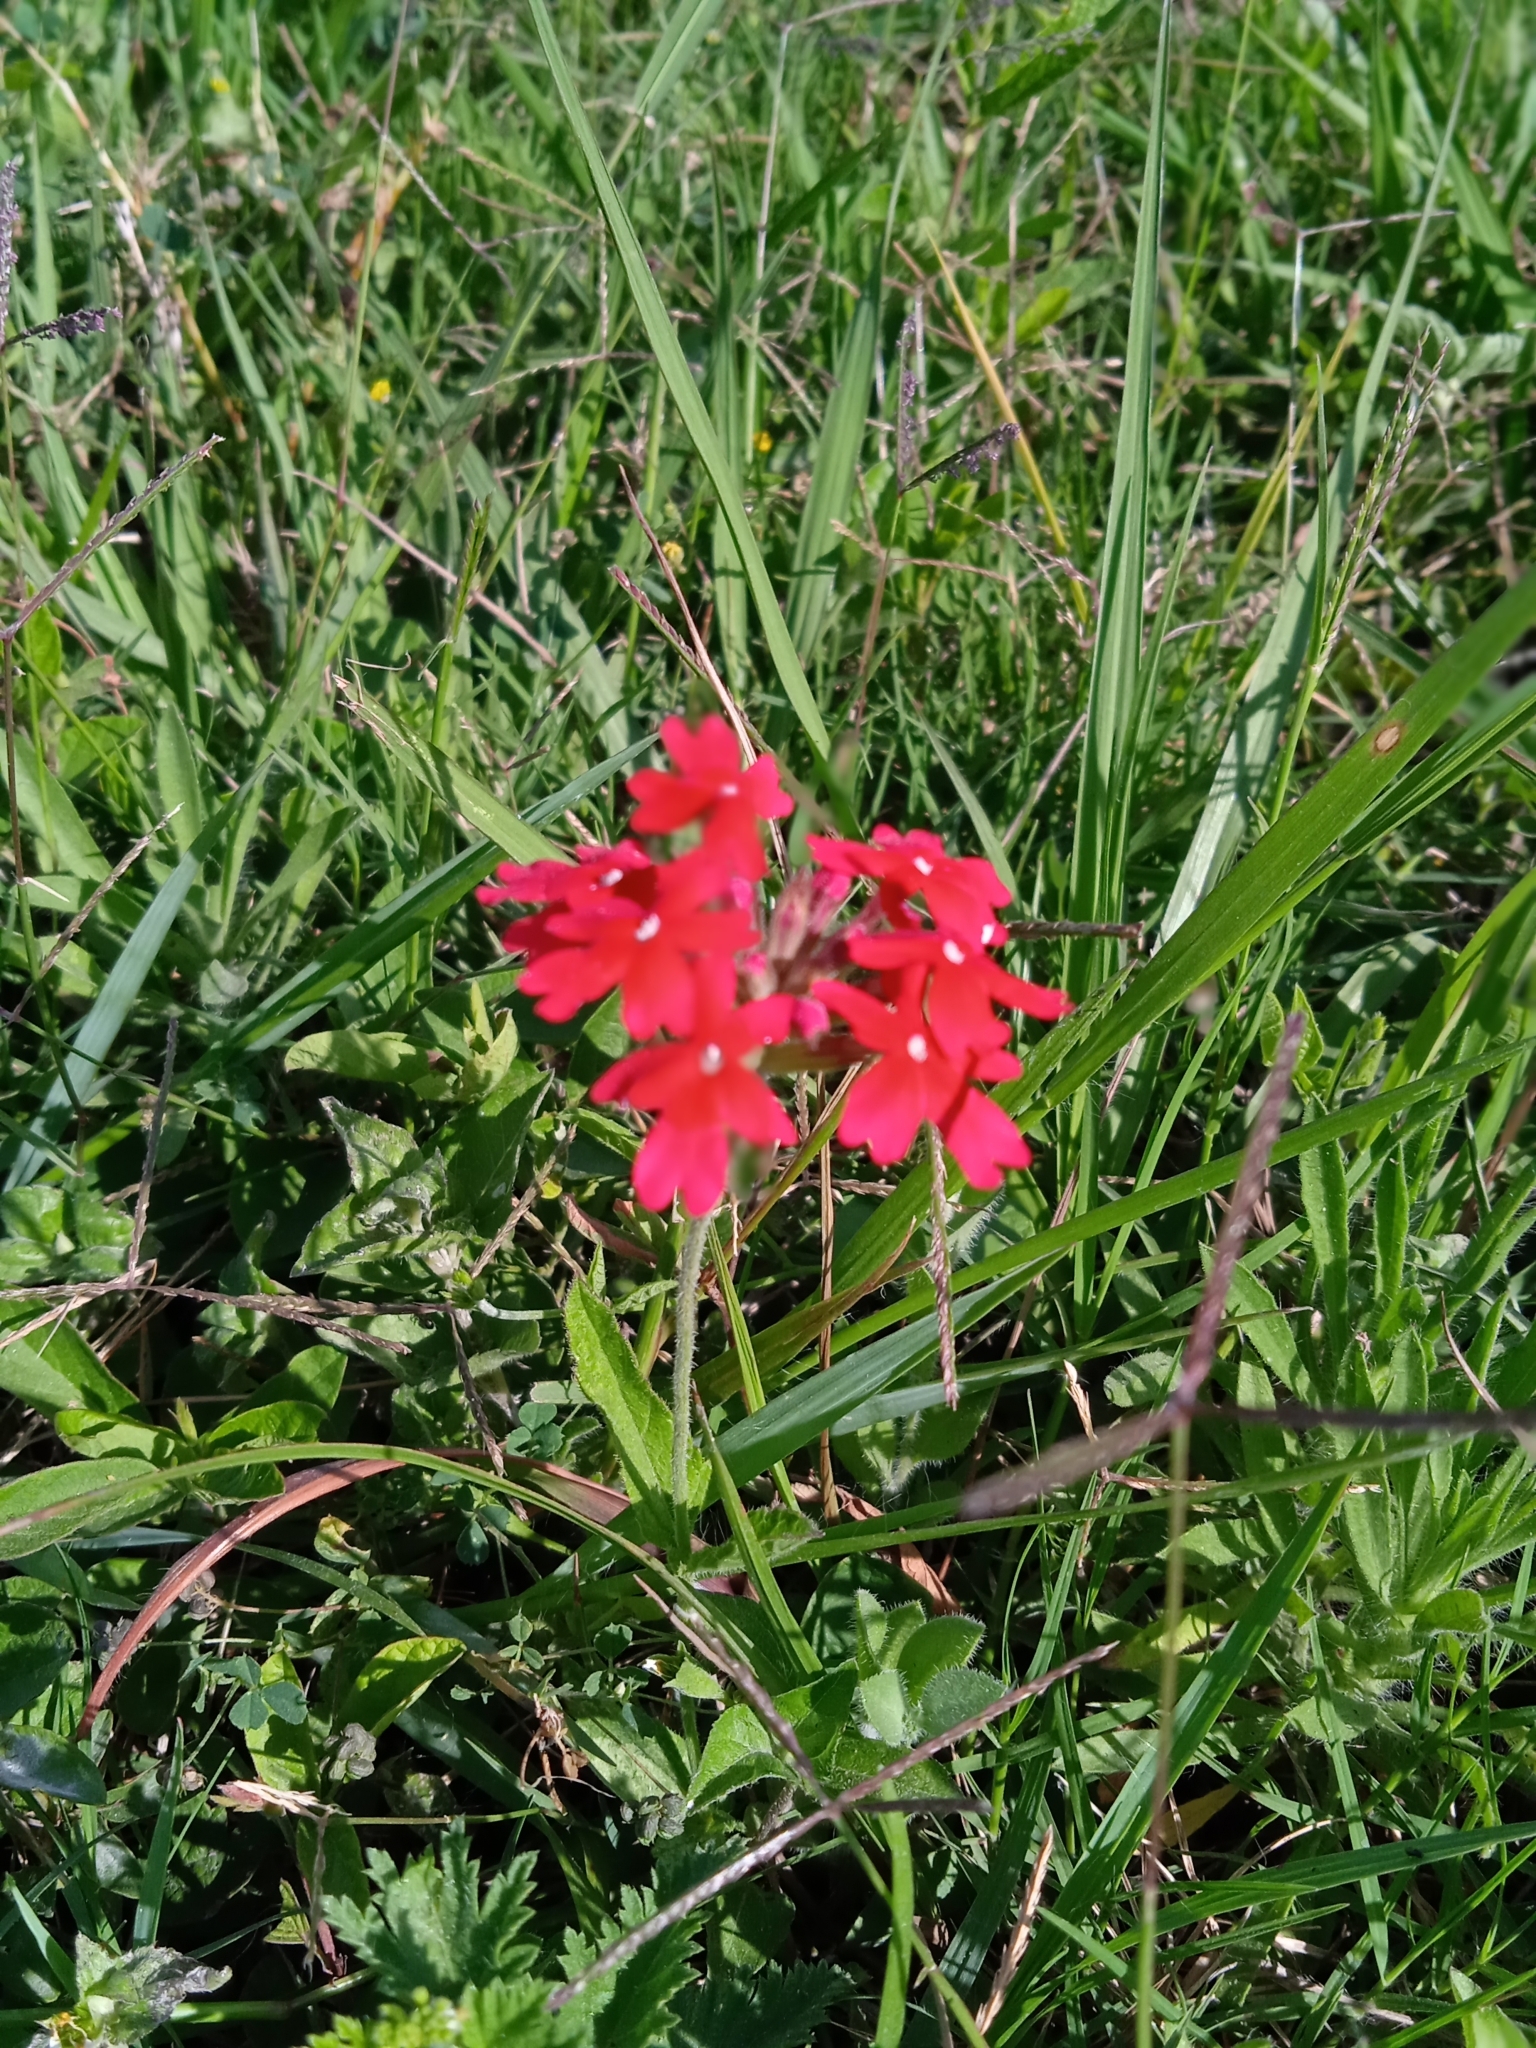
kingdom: Plantae
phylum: Tracheophyta
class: Magnoliopsida
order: Lamiales
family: Verbenaceae
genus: Verbena
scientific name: Verbena peruviana
